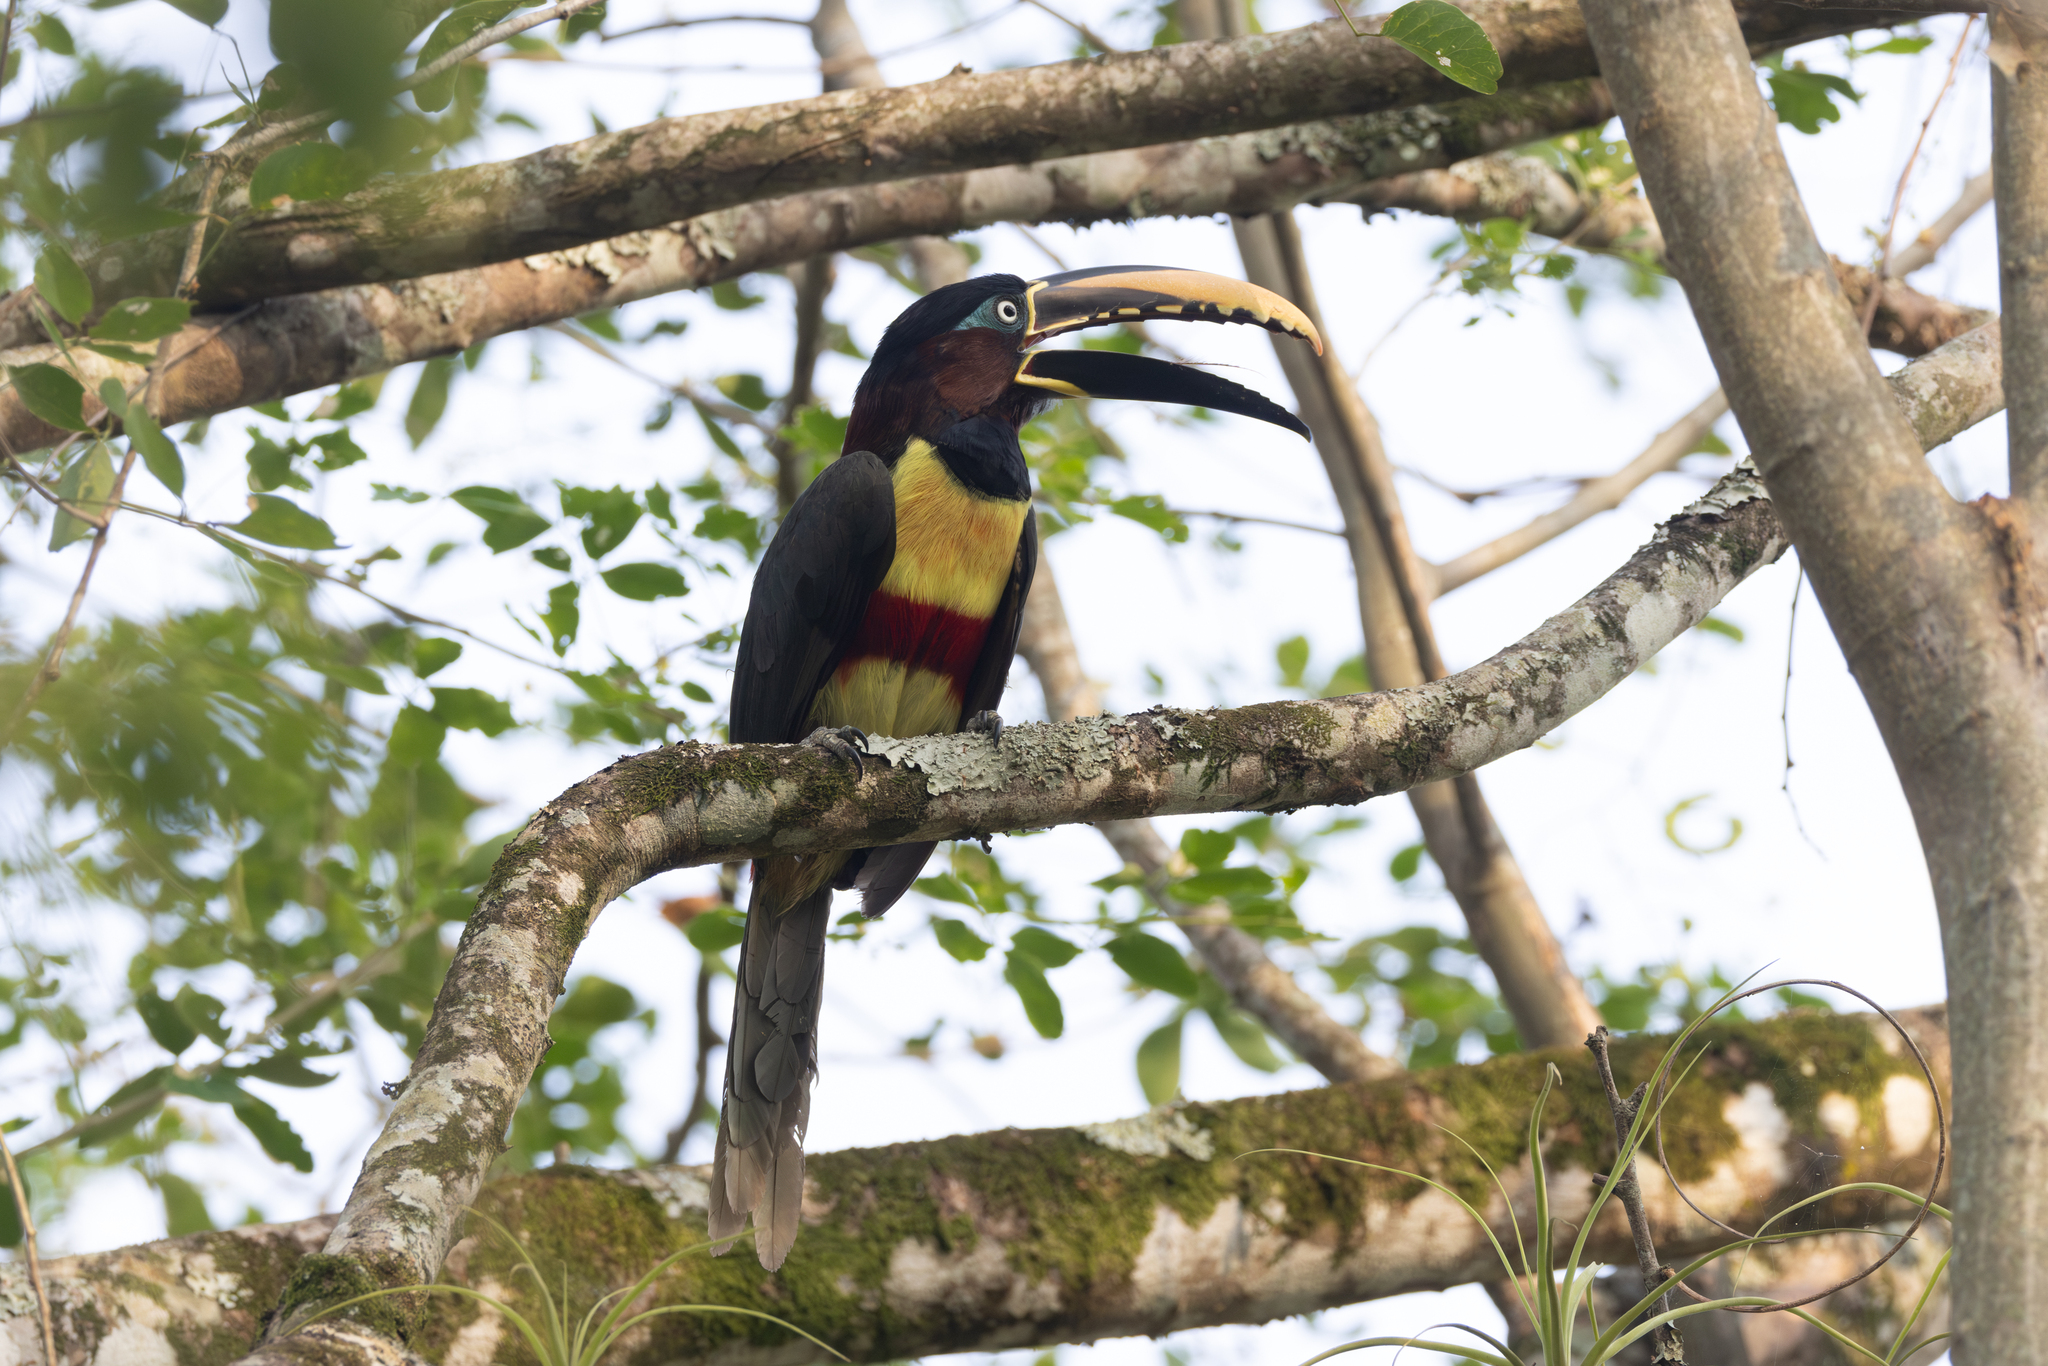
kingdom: Animalia
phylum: Chordata
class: Aves
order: Piciformes
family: Ramphastidae
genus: Pteroglossus
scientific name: Pteroglossus castanotis
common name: Chestnut-eared aracari
